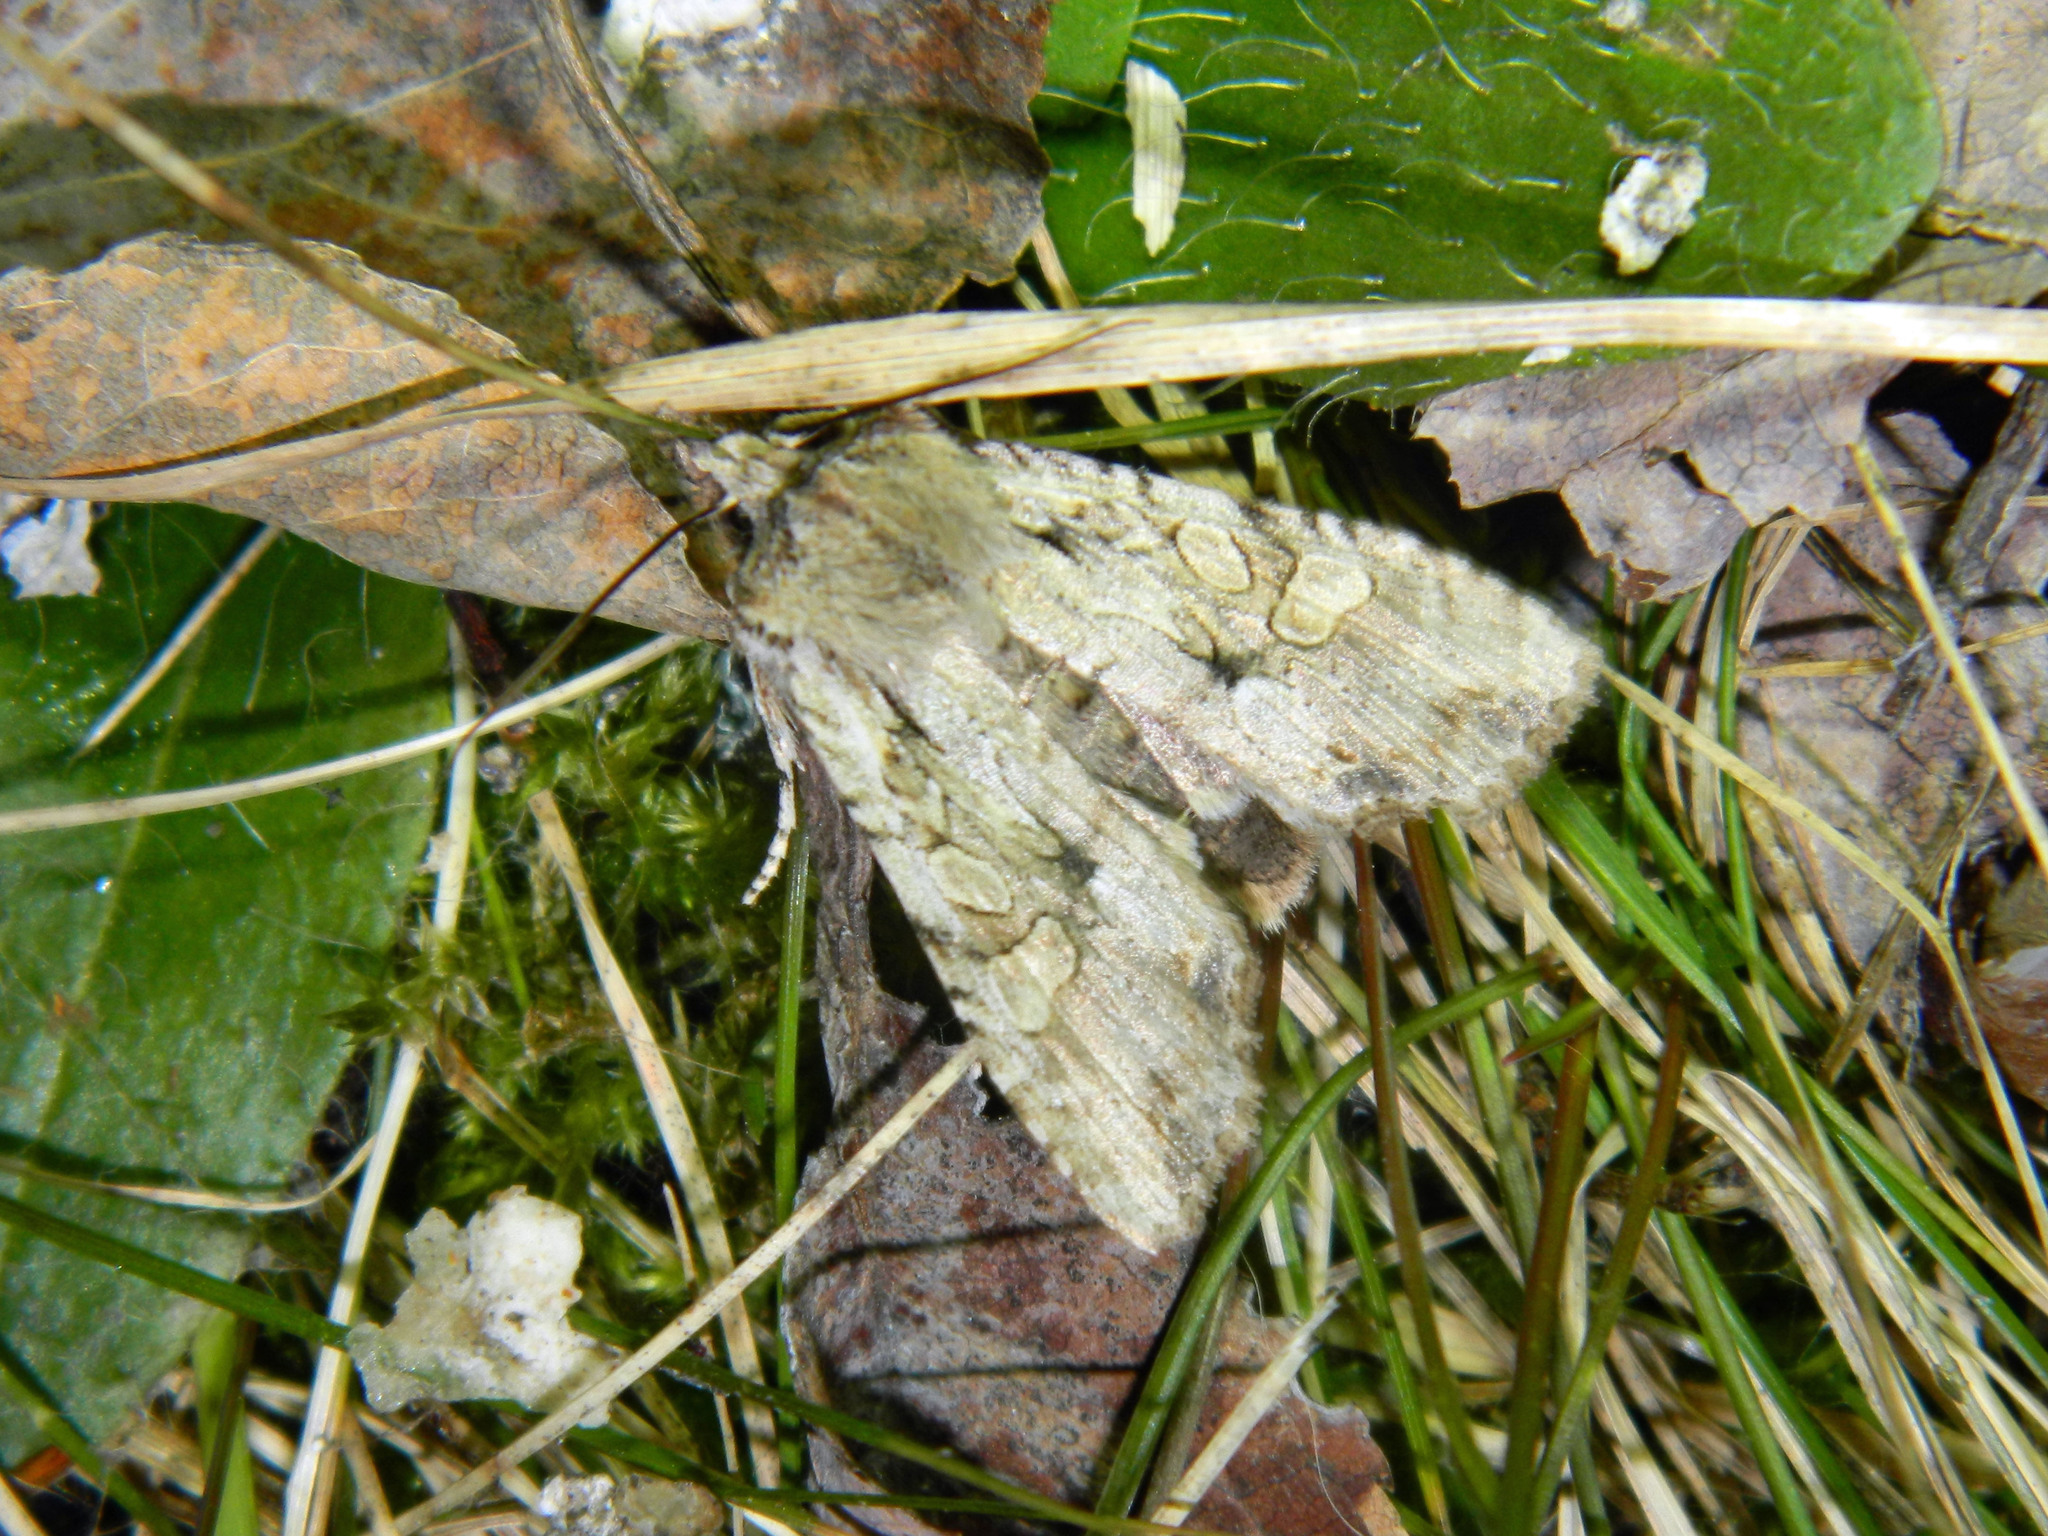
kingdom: Animalia
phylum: Arthropoda
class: Insecta
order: Lepidoptera
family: Noctuidae
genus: Lithophane
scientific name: Lithophane disposita
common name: Dashed gray pinion moth
